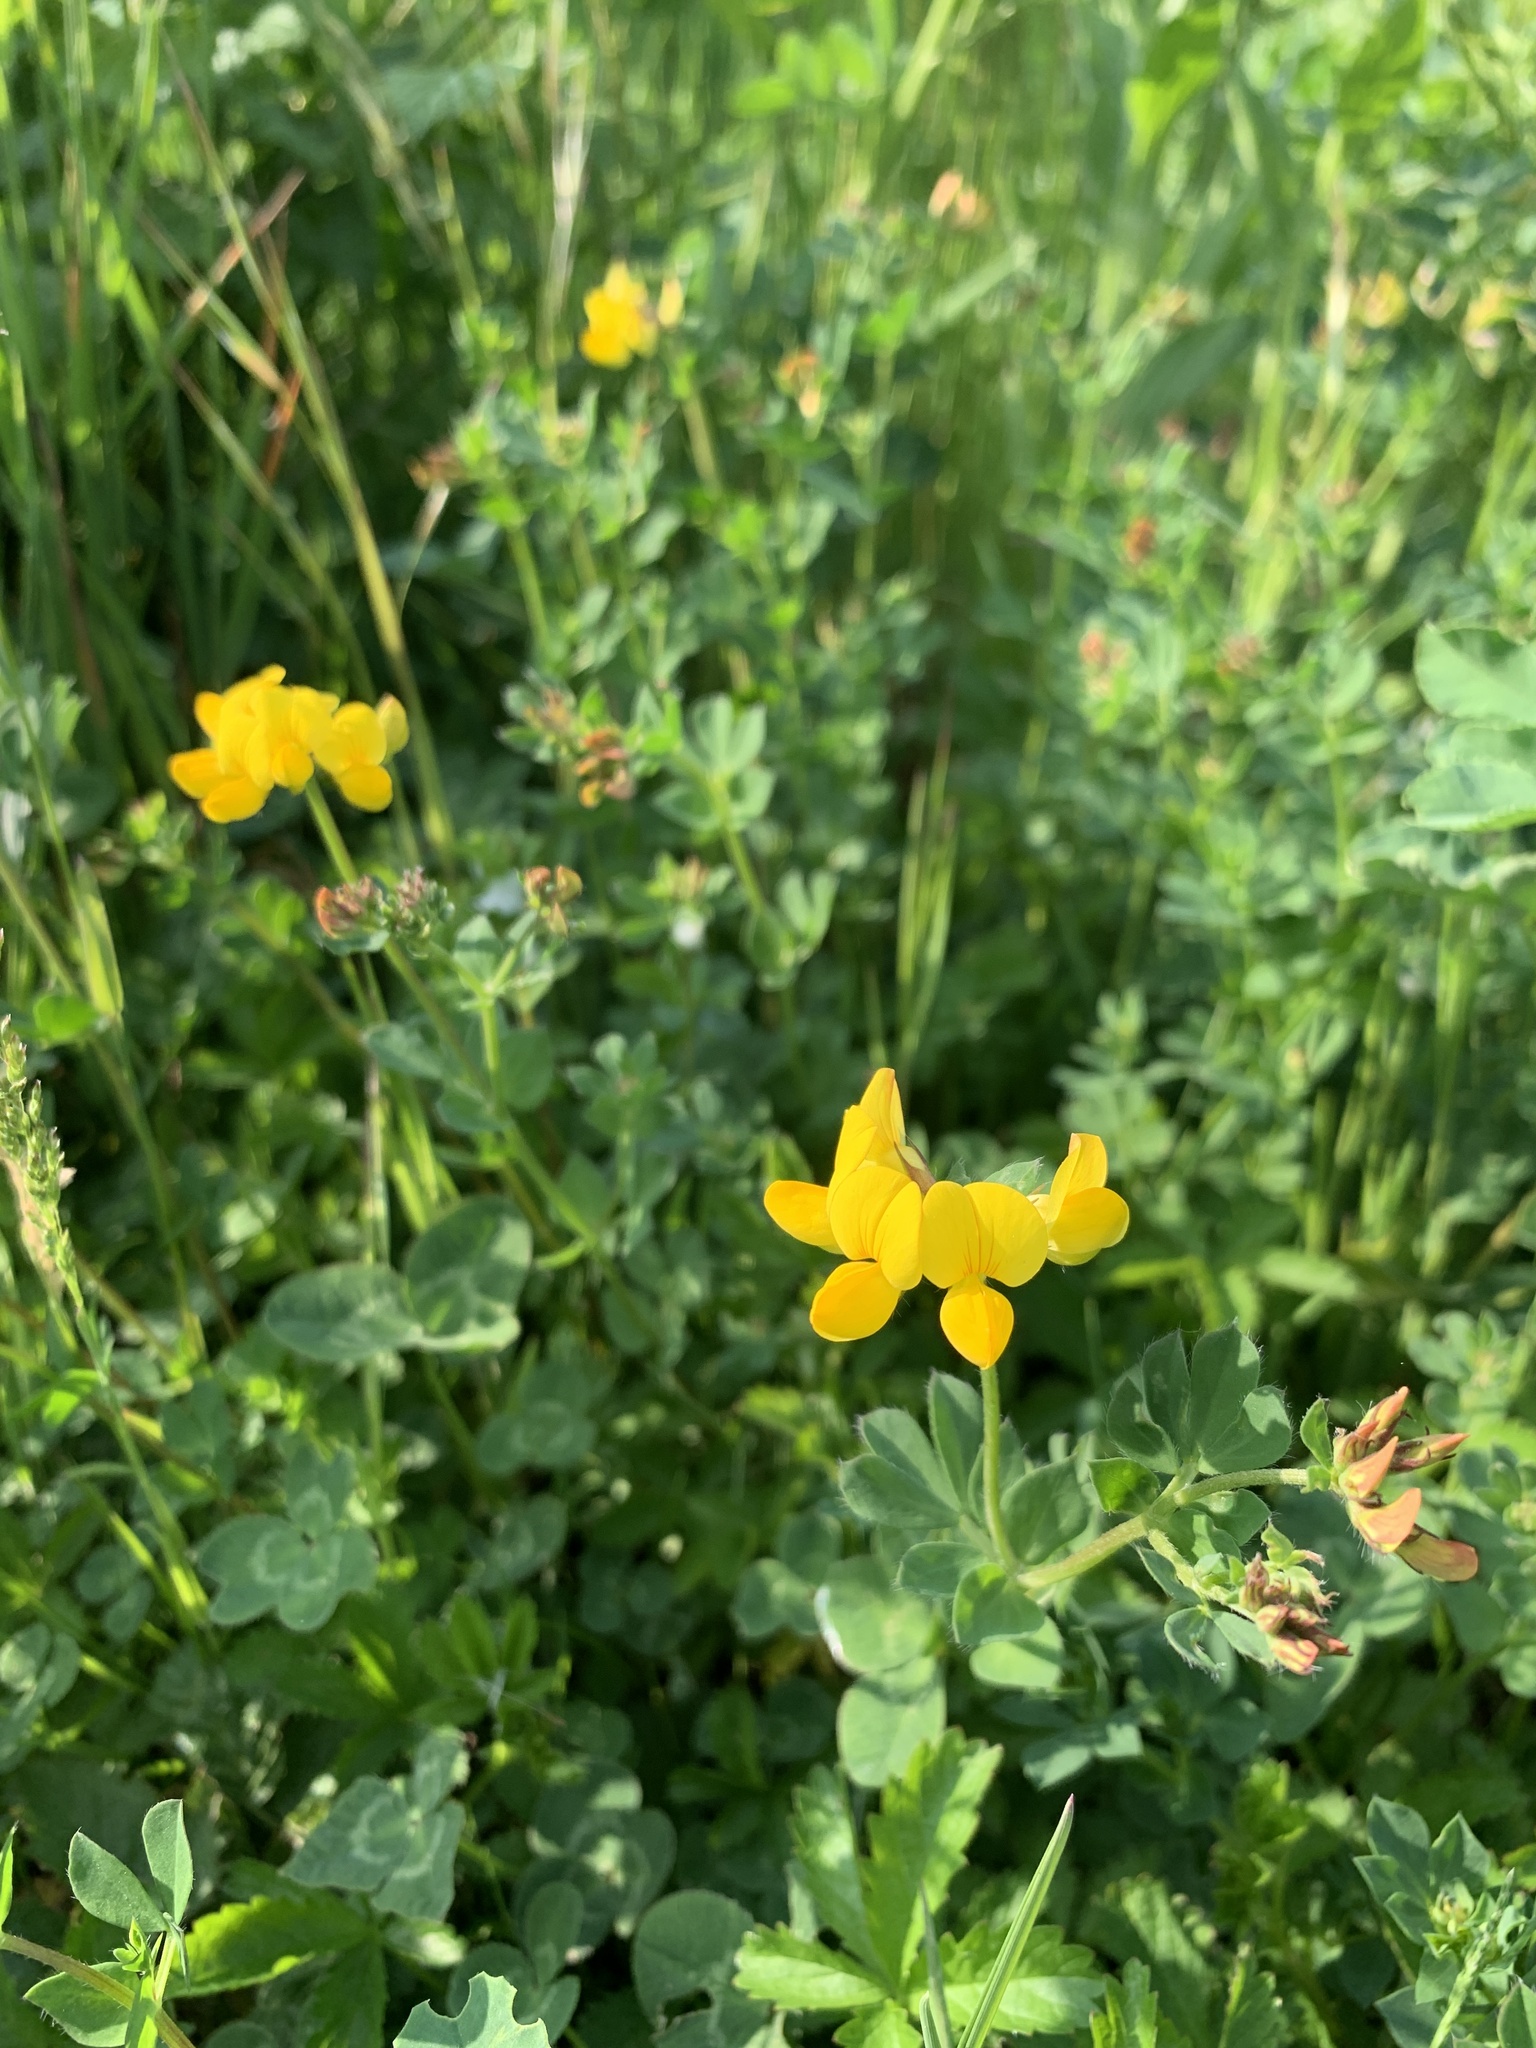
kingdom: Plantae
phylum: Tracheophyta
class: Magnoliopsida
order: Fabales
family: Fabaceae
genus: Lotus
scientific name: Lotus corniculatus
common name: Common bird's-foot-trefoil
